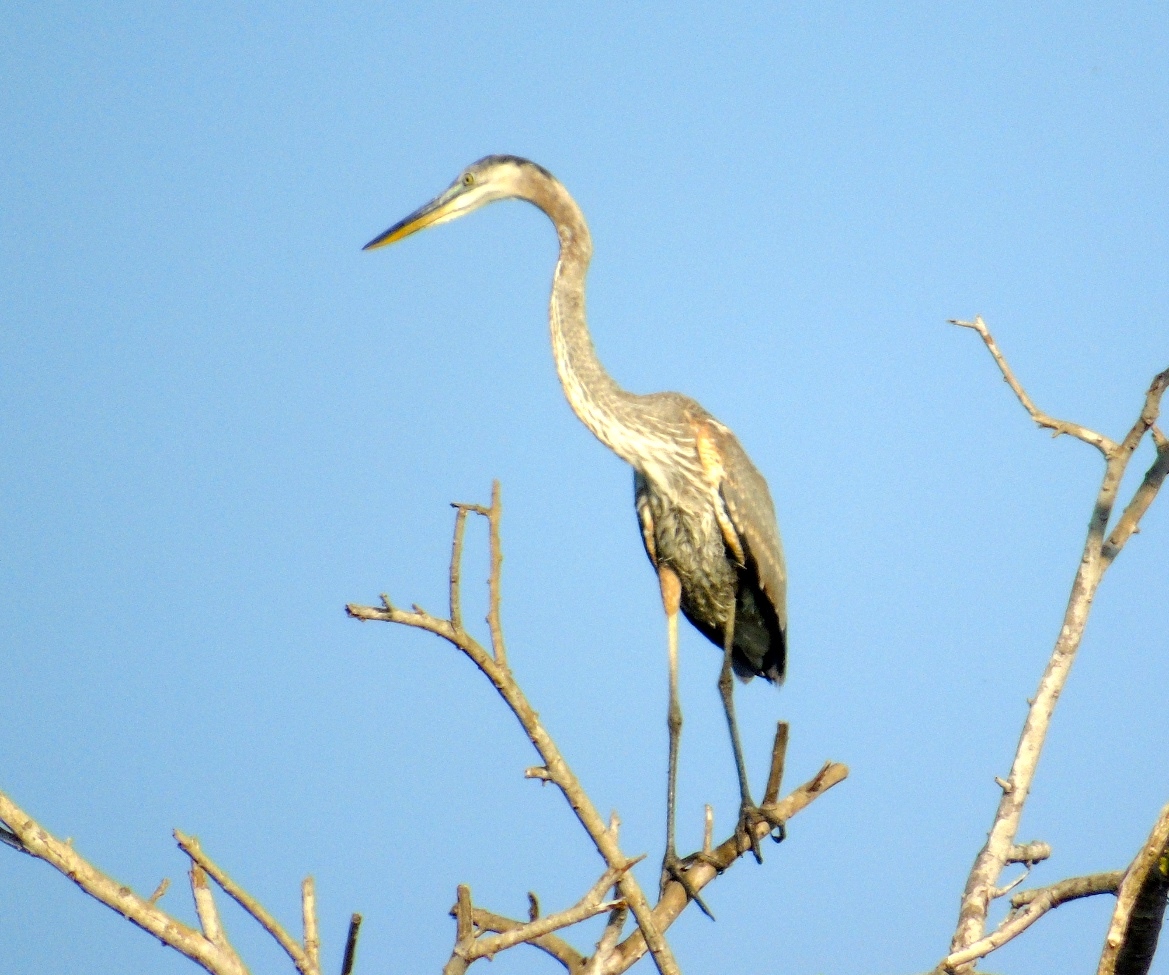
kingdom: Animalia
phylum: Chordata
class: Aves
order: Pelecaniformes
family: Ardeidae
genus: Ardea
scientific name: Ardea herodias
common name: Great blue heron
